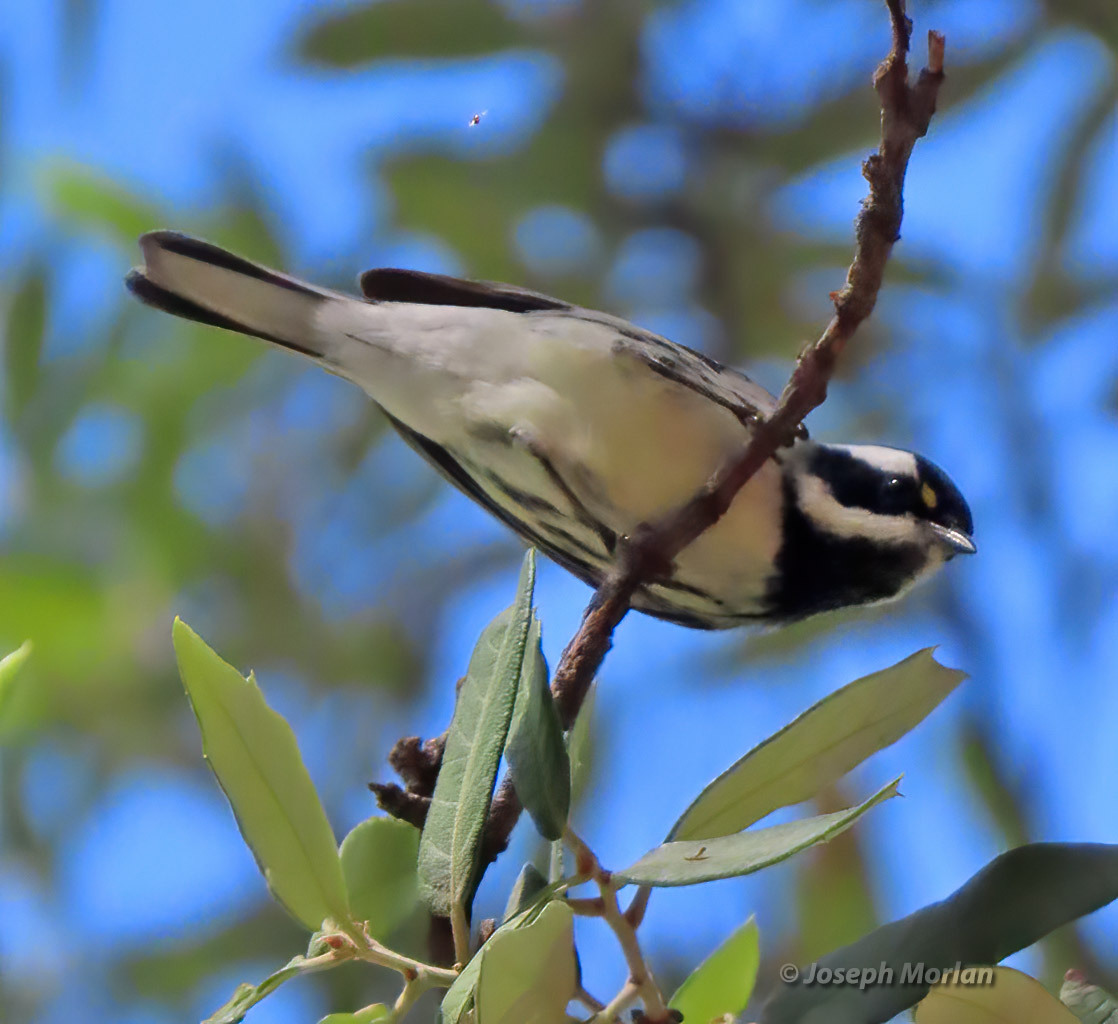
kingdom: Animalia
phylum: Chordata
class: Aves
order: Passeriformes
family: Parulidae
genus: Setophaga
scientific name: Setophaga nigrescens
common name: Black-throated gray warbler
